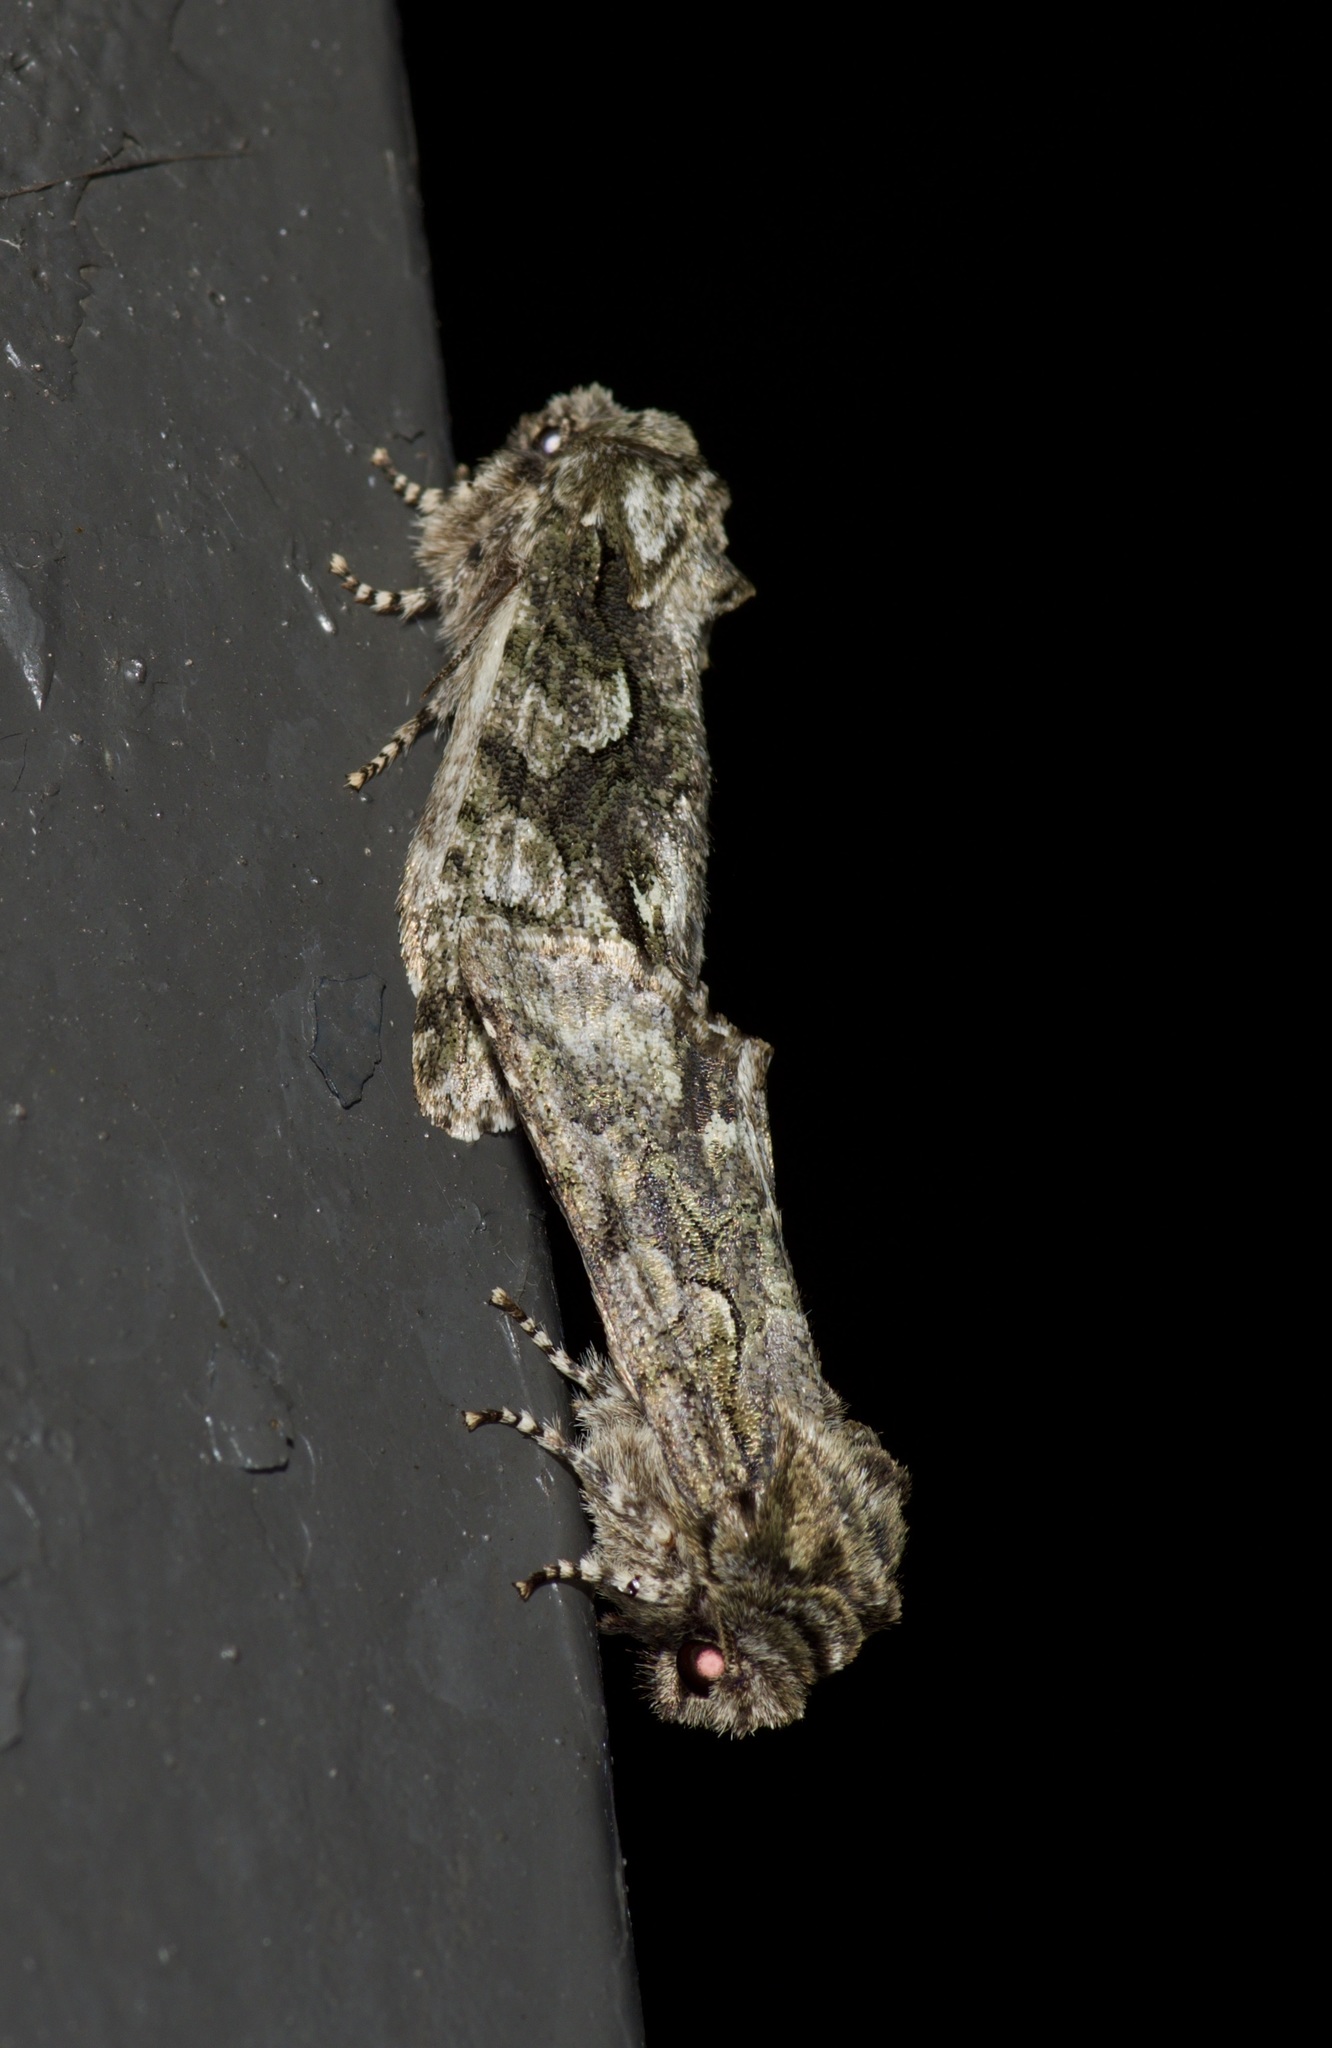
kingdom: Animalia
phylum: Arthropoda
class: Insecta
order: Lepidoptera
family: Noctuidae
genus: Psaphida
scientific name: Psaphida resumens
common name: Figure-eight sallow
